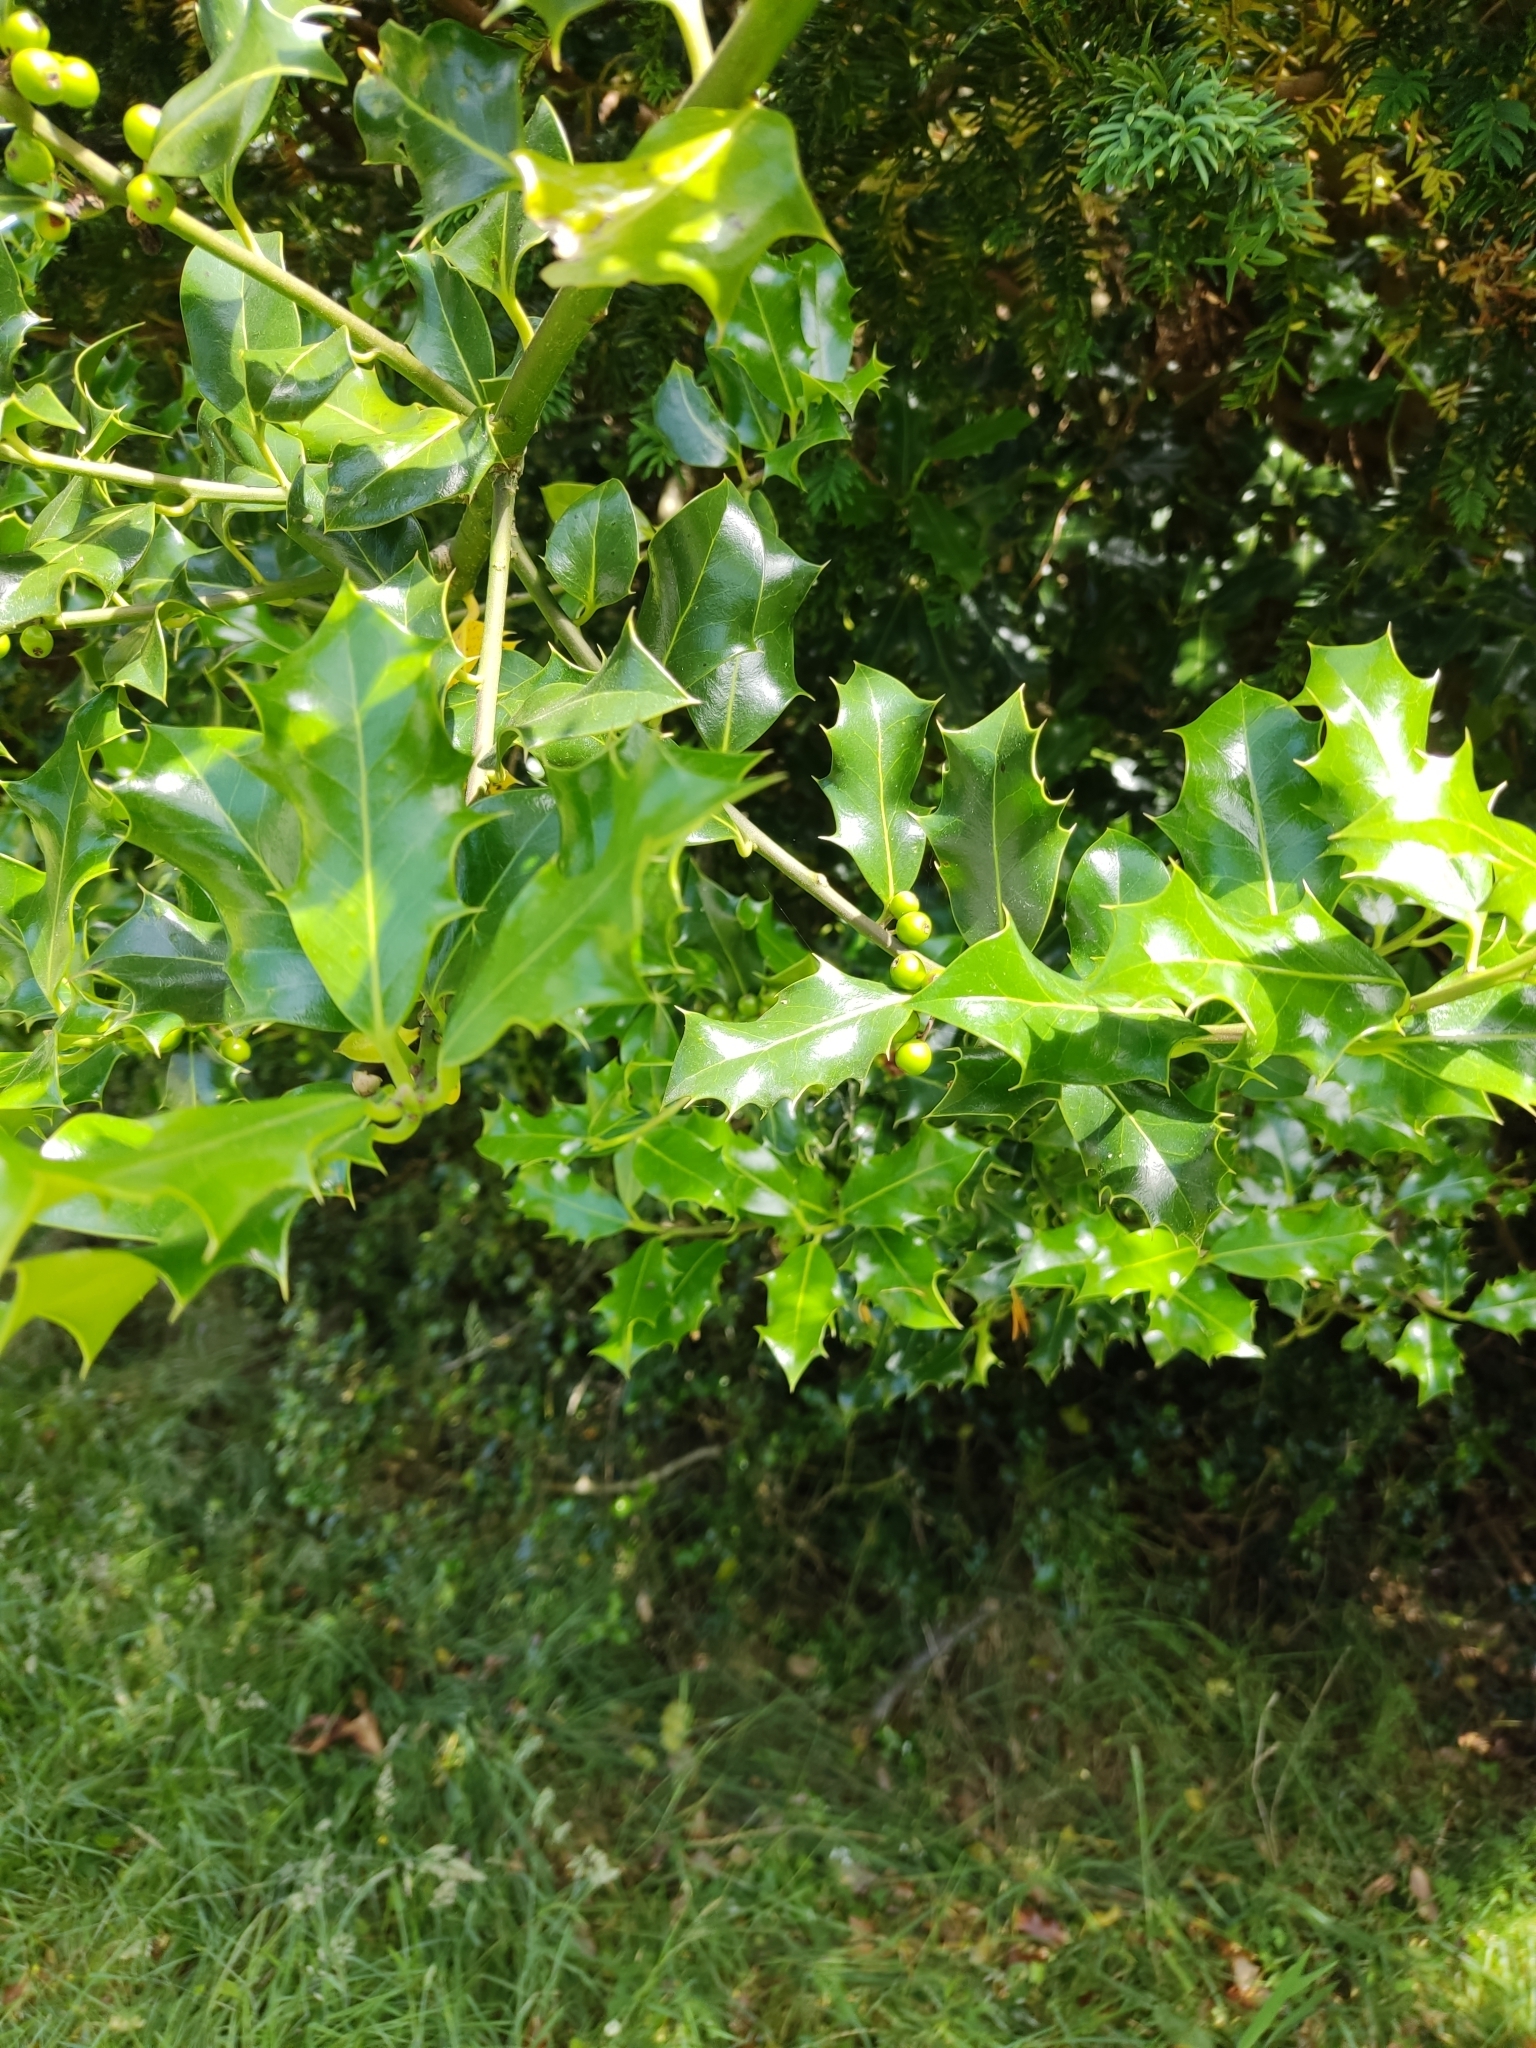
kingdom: Plantae
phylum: Tracheophyta
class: Magnoliopsida
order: Aquifoliales
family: Aquifoliaceae
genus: Ilex
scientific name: Ilex aquifolium
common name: English holly
